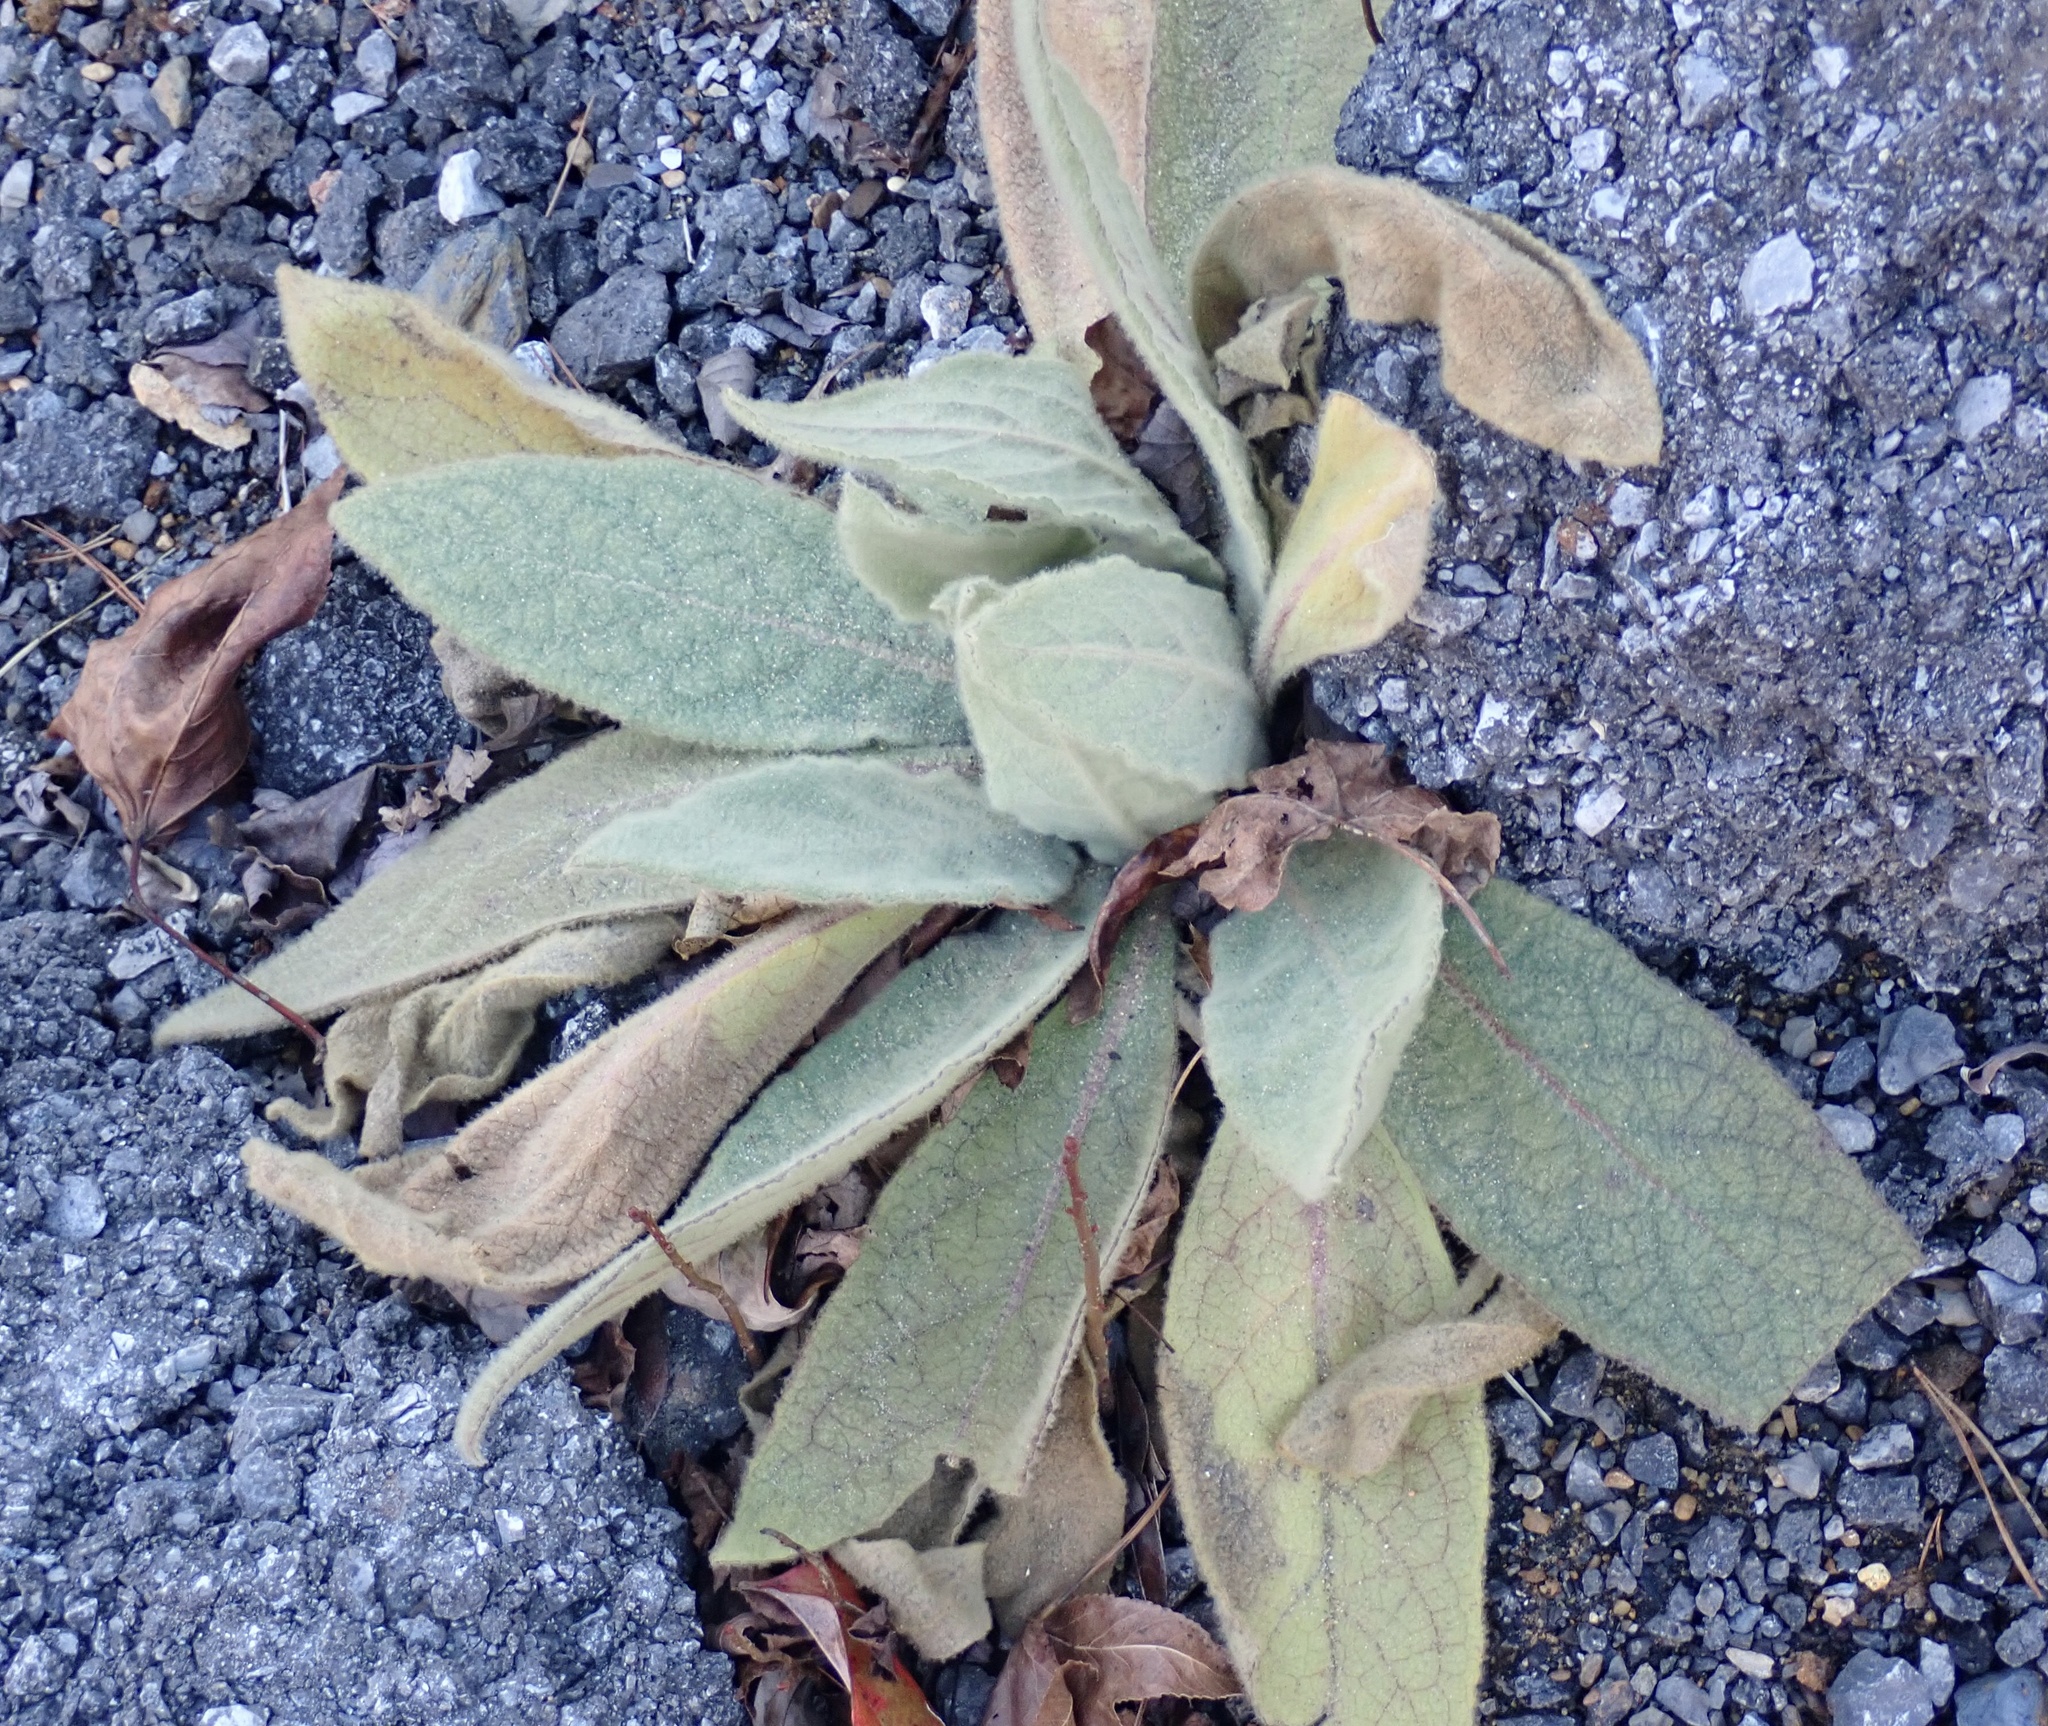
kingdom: Plantae
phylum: Tracheophyta
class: Magnoliopsida
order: Lamiales
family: Scrophulariaceae
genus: Verbascum
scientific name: Verbascum thapsus
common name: Common mullein
